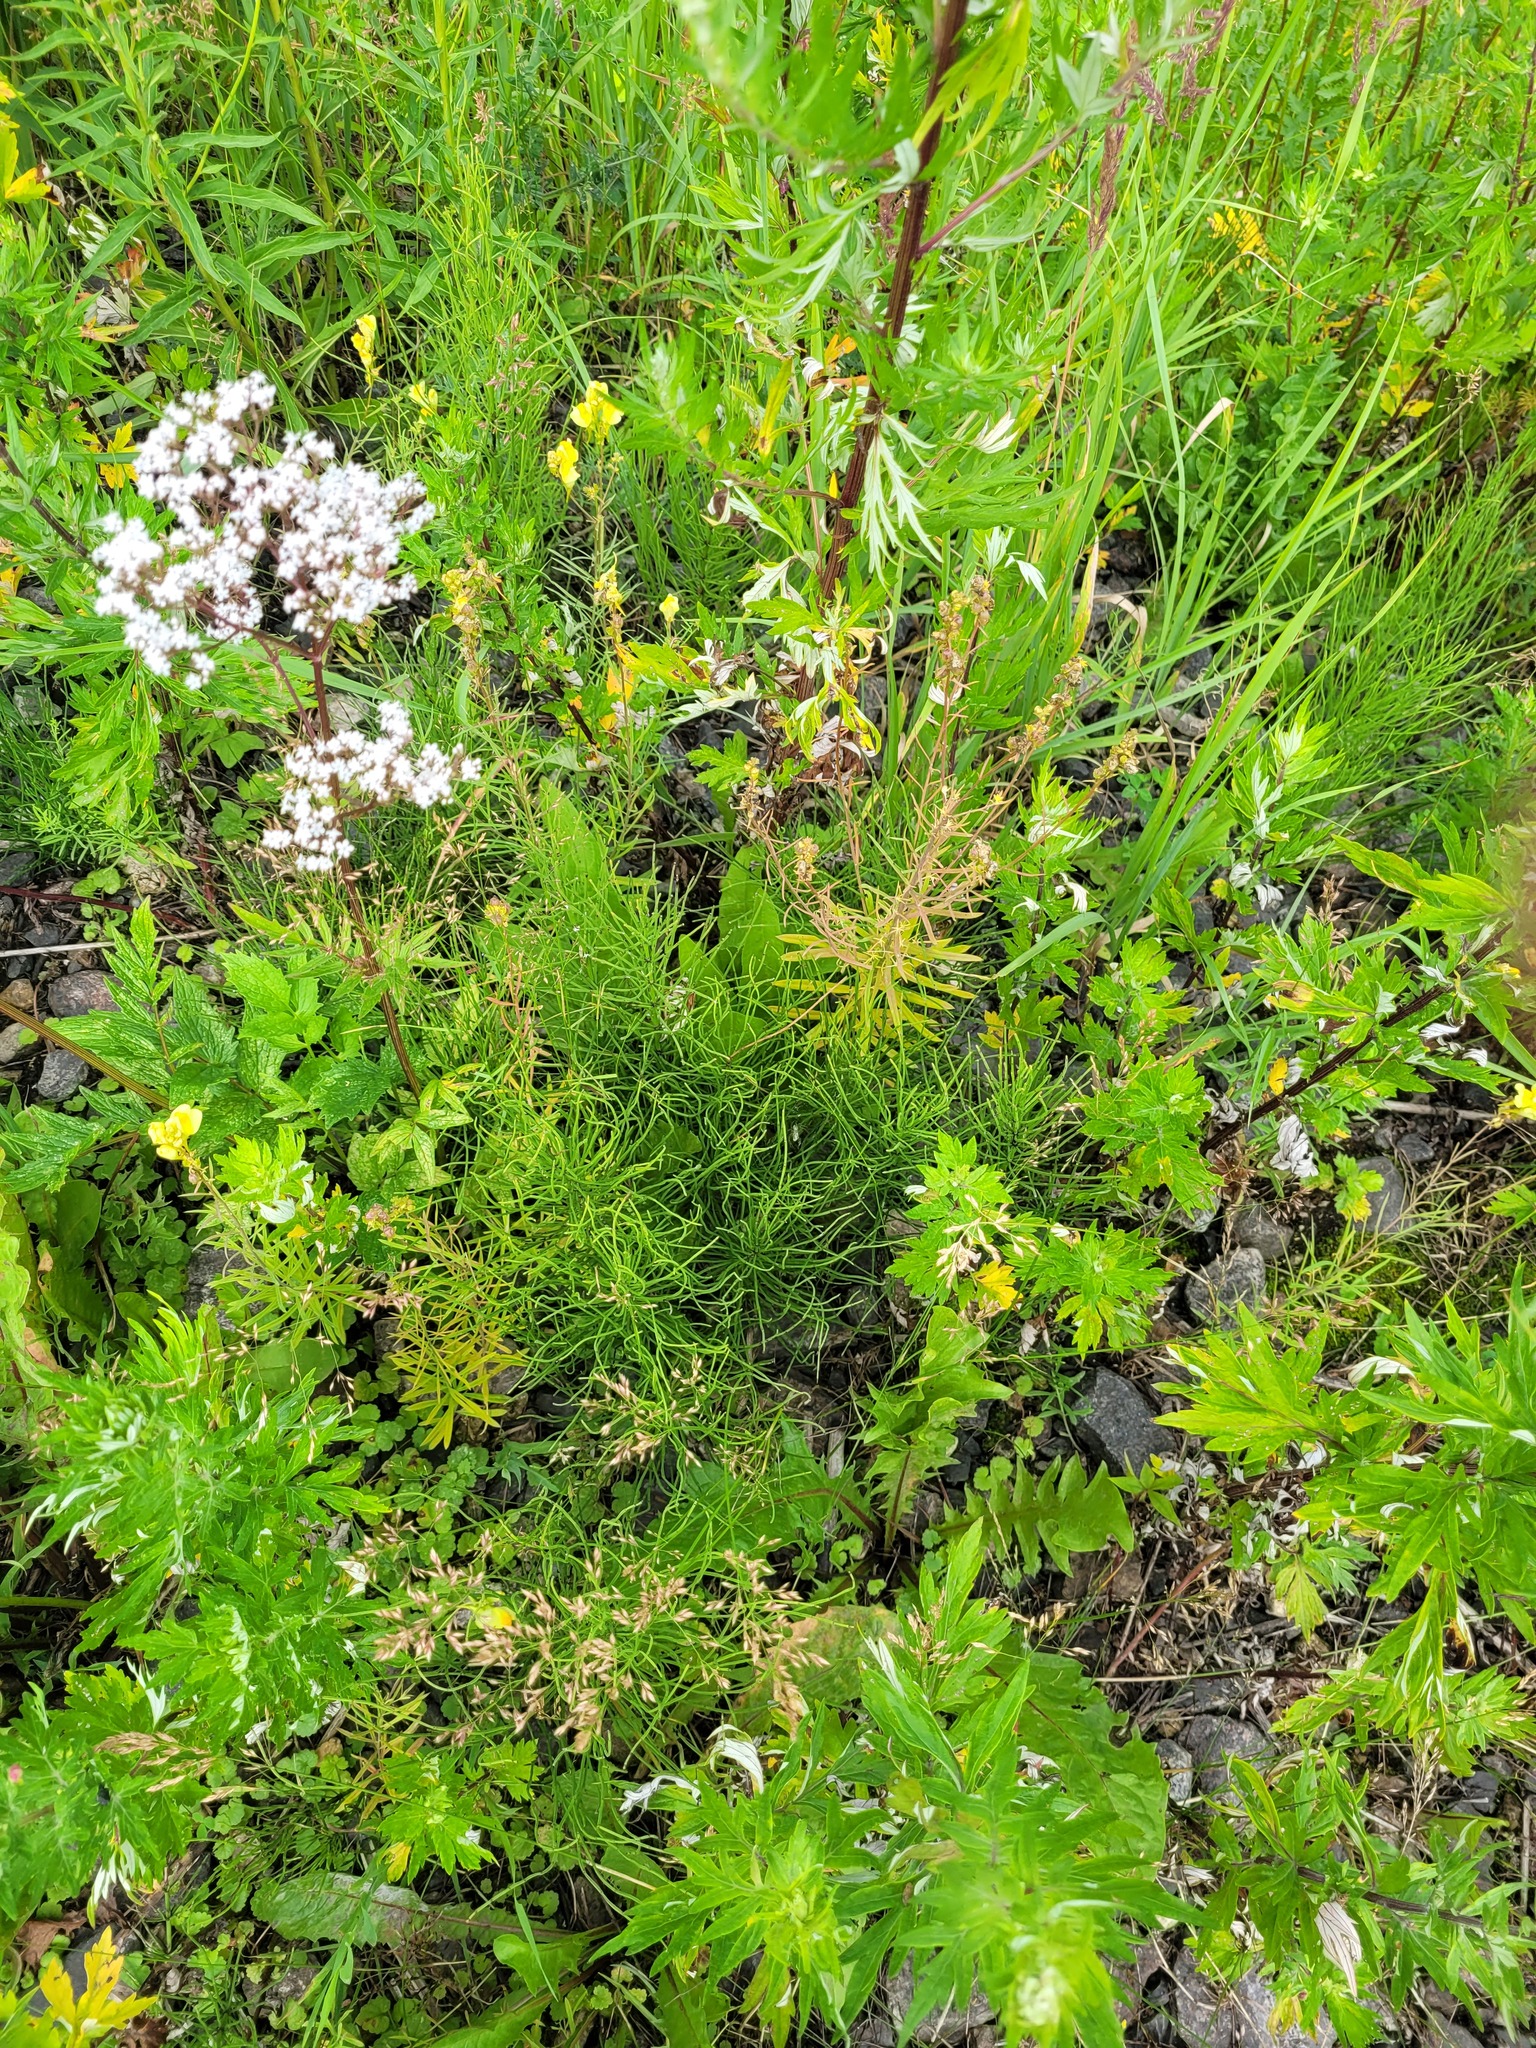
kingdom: Plantae
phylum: Tracheophyta
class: Polypodiopsida
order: Equisetales
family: Equisetaceae
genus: Equisetum
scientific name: Equisetum arvense
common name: Field horsetail
